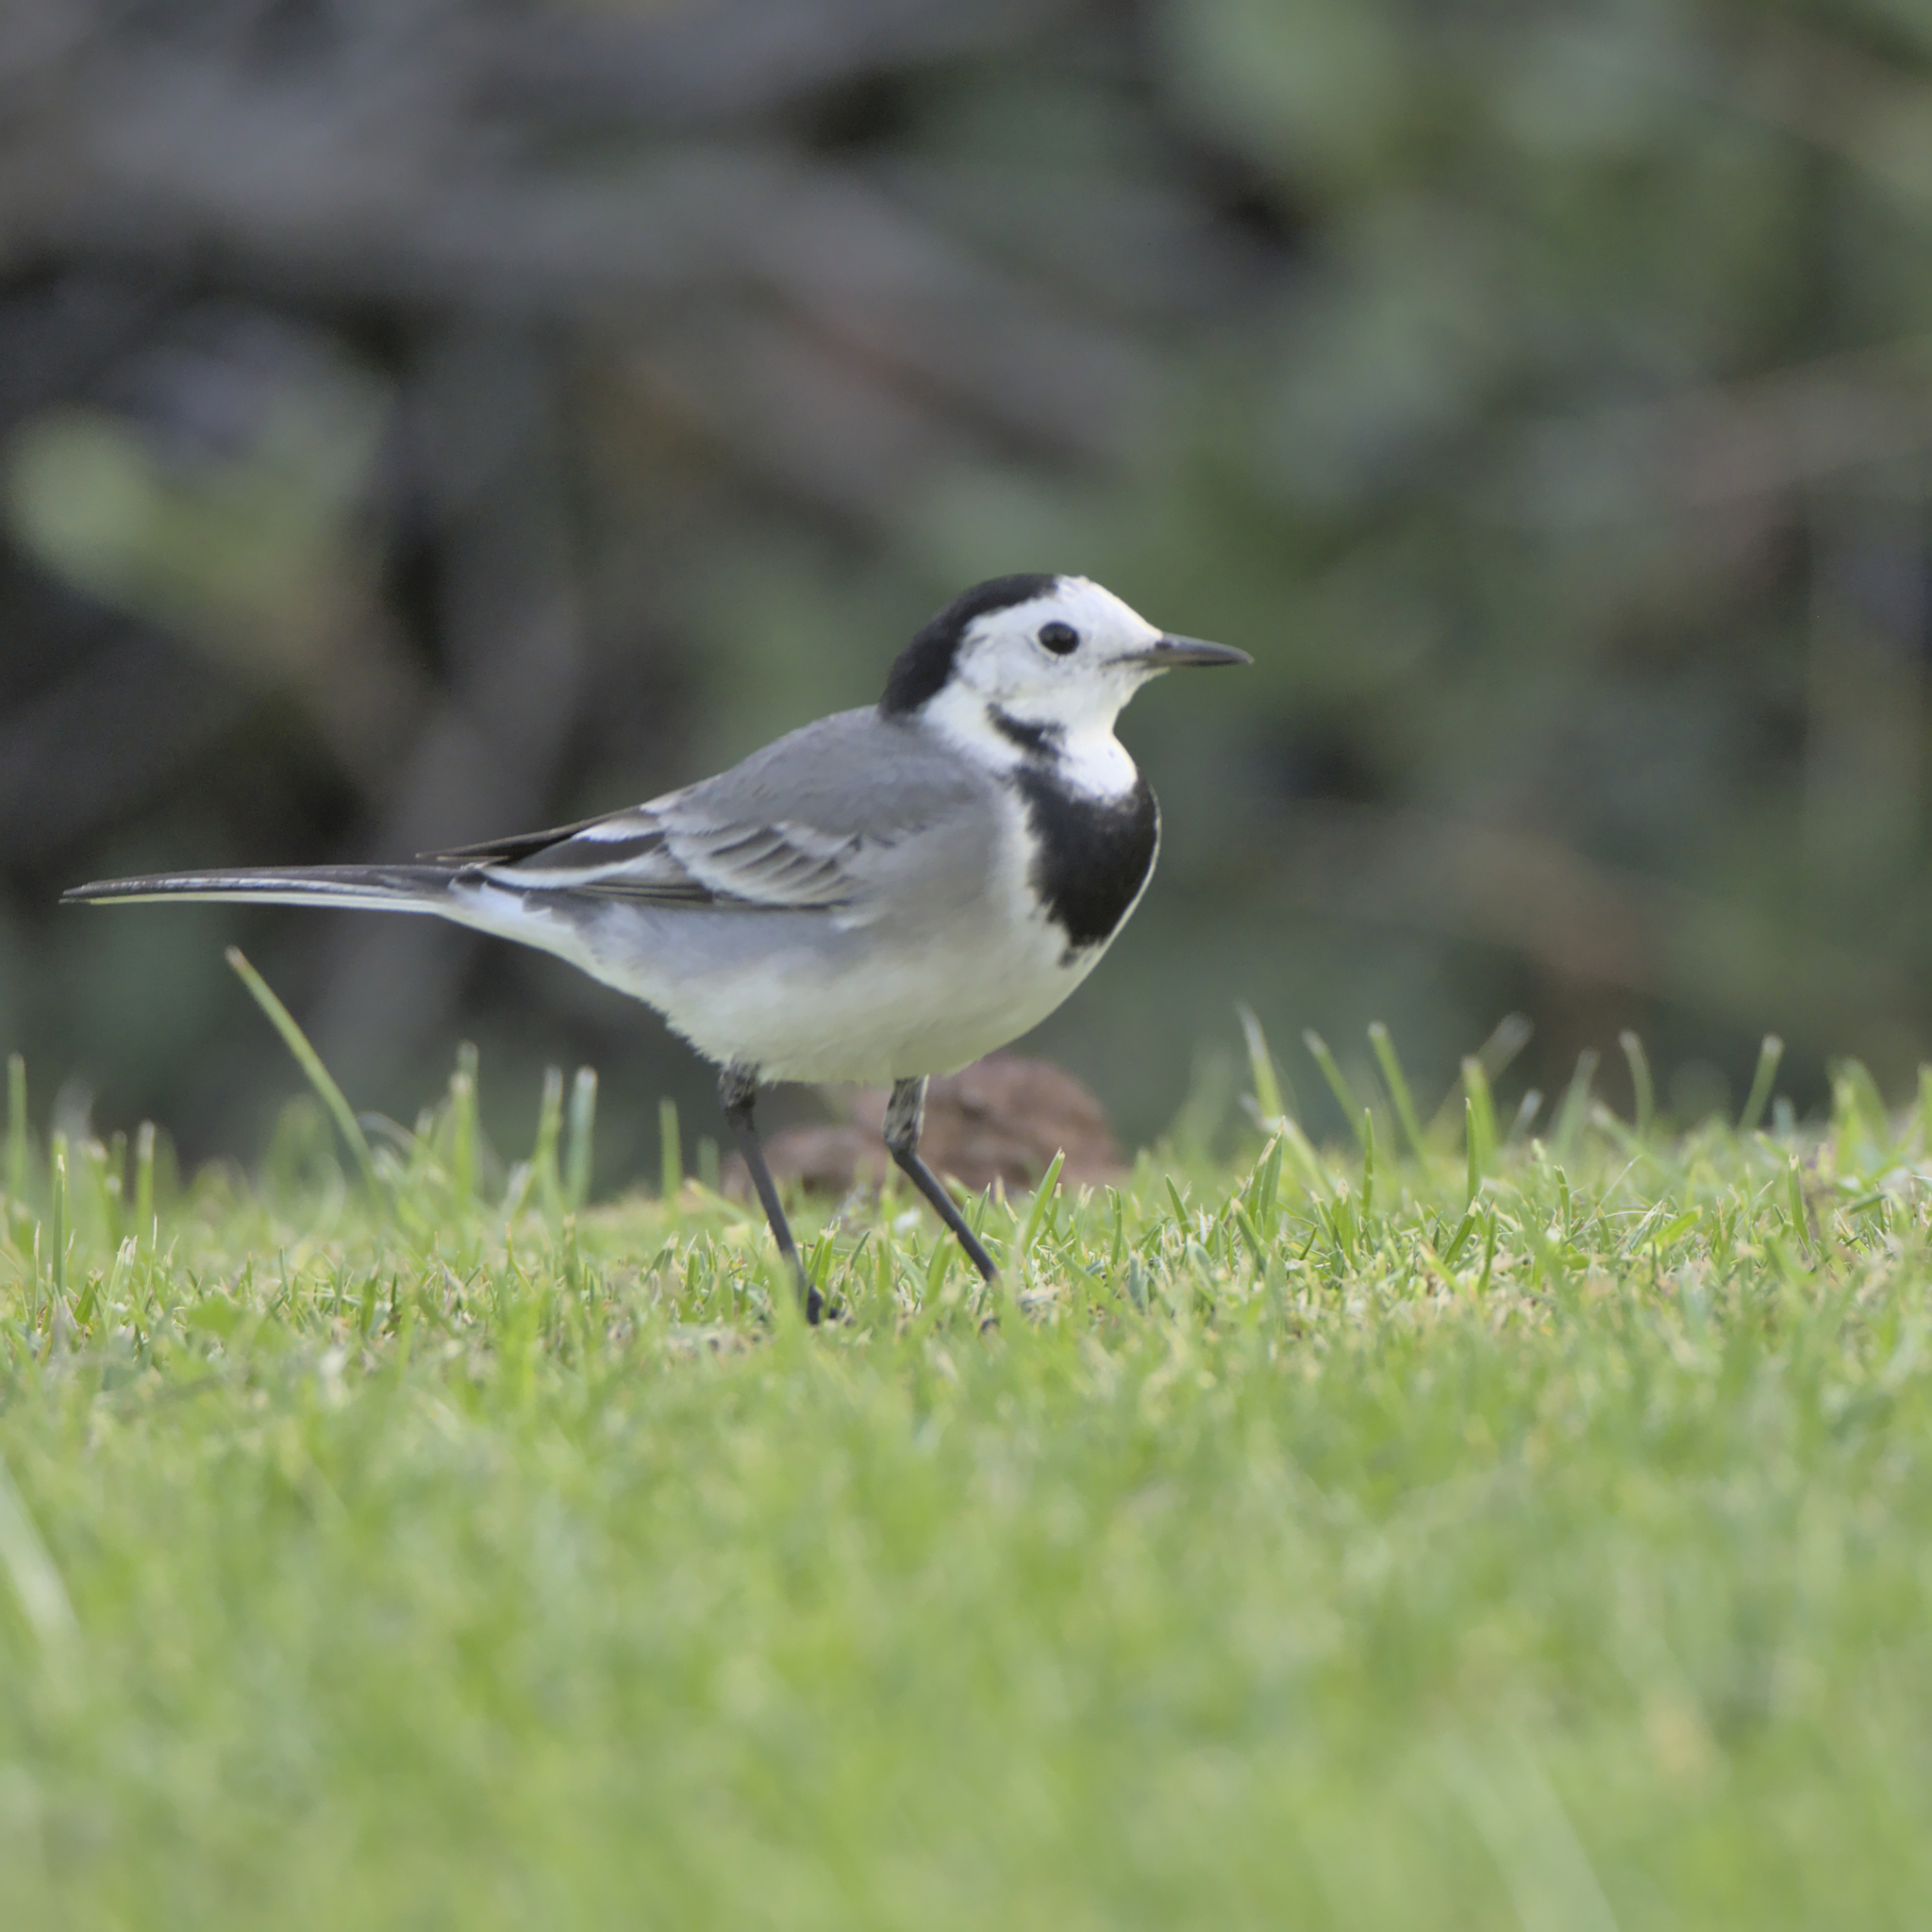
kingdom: Animalia
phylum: Chordata
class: Aves
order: Passeriformes
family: Motacillidae
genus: Motacilla
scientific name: Motacilla alba
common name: White wagtail
